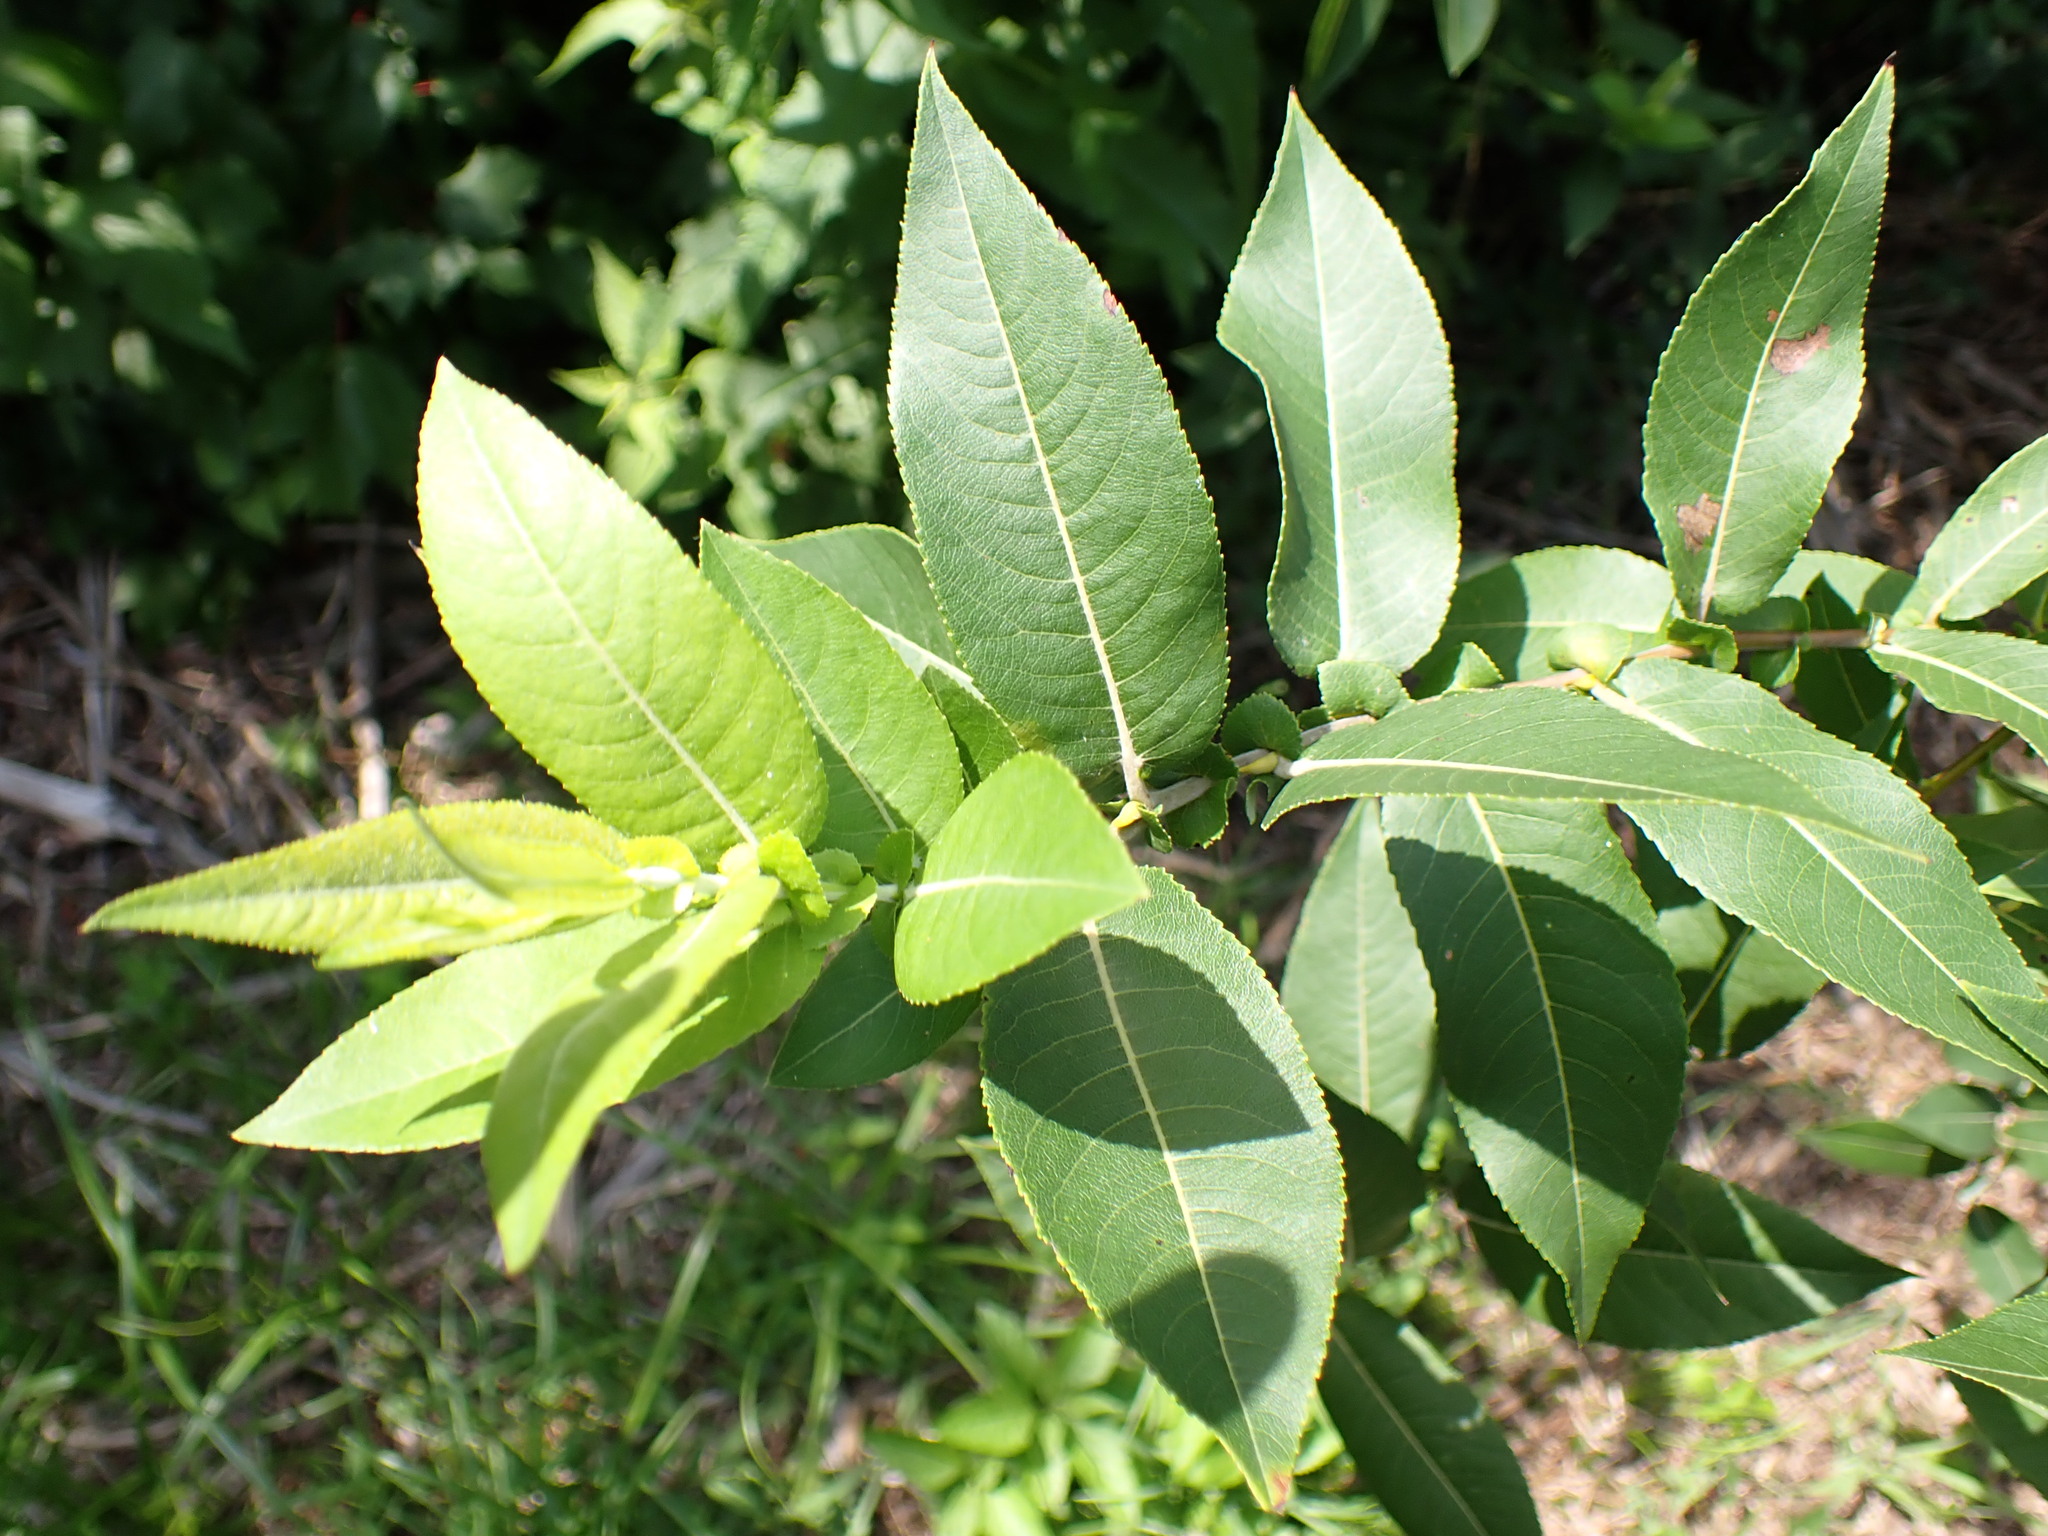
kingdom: Plantae
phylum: Tracheophyta
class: Magnoliopsida
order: Malpighiales
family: Salicaceae
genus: Salix
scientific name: Salix eriocephala
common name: Heart-leaved willow
